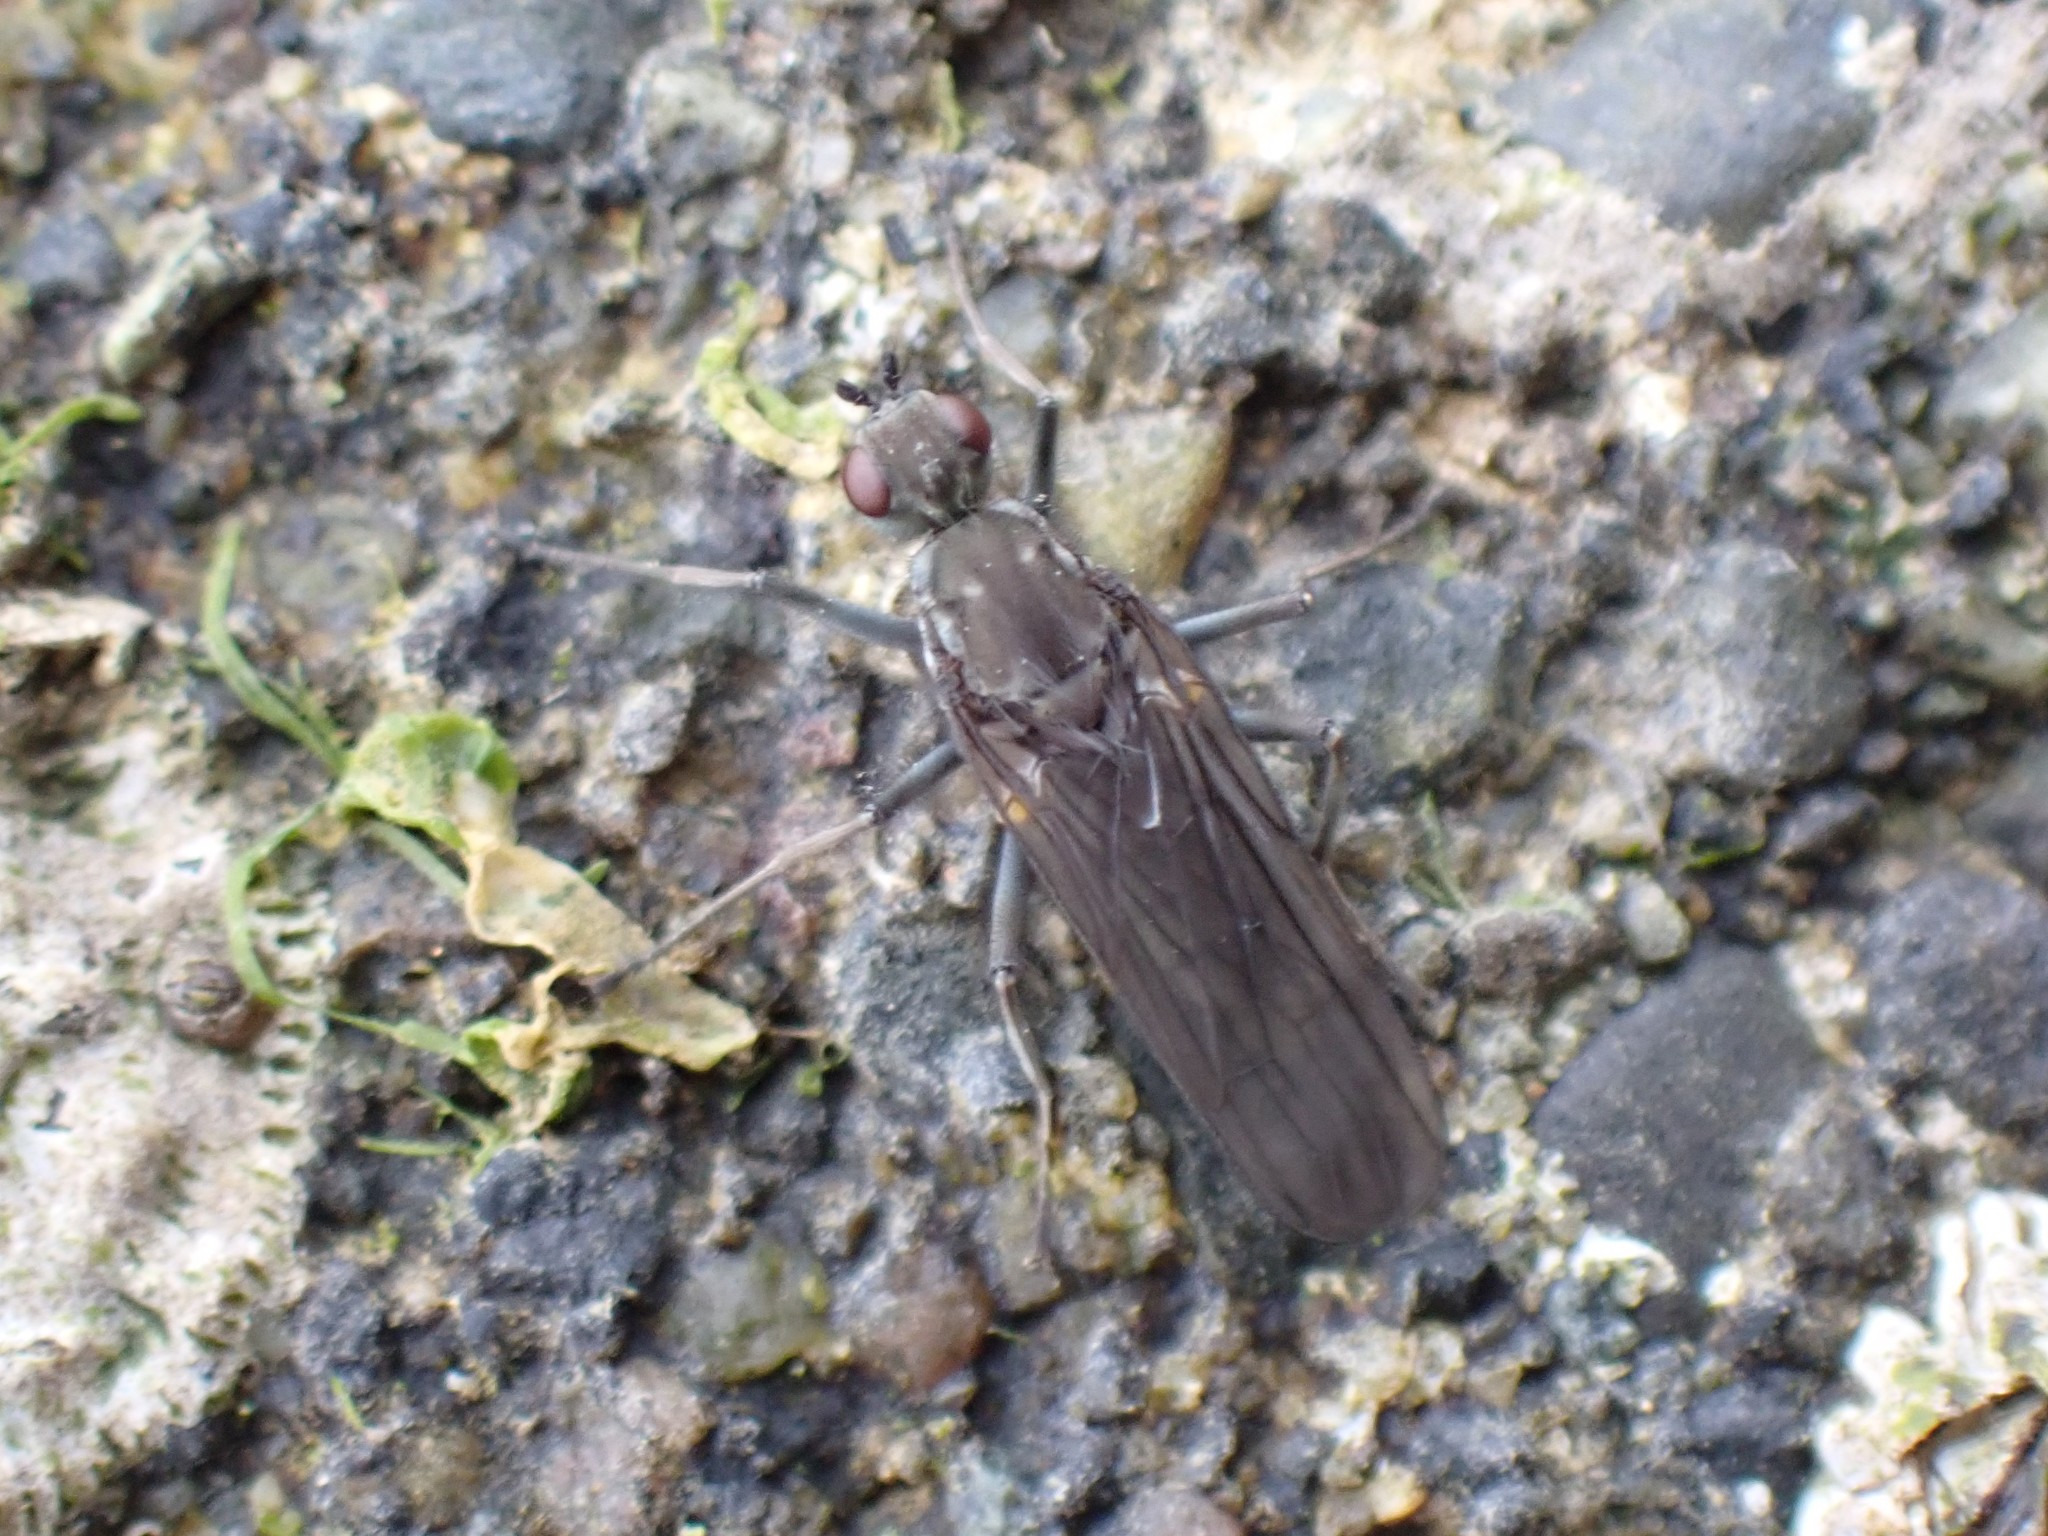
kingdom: Animalia
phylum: Arthropoda
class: Insecta
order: Diptera
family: Dryomyzidae
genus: Oedoparena
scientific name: Oedoparena glauca
